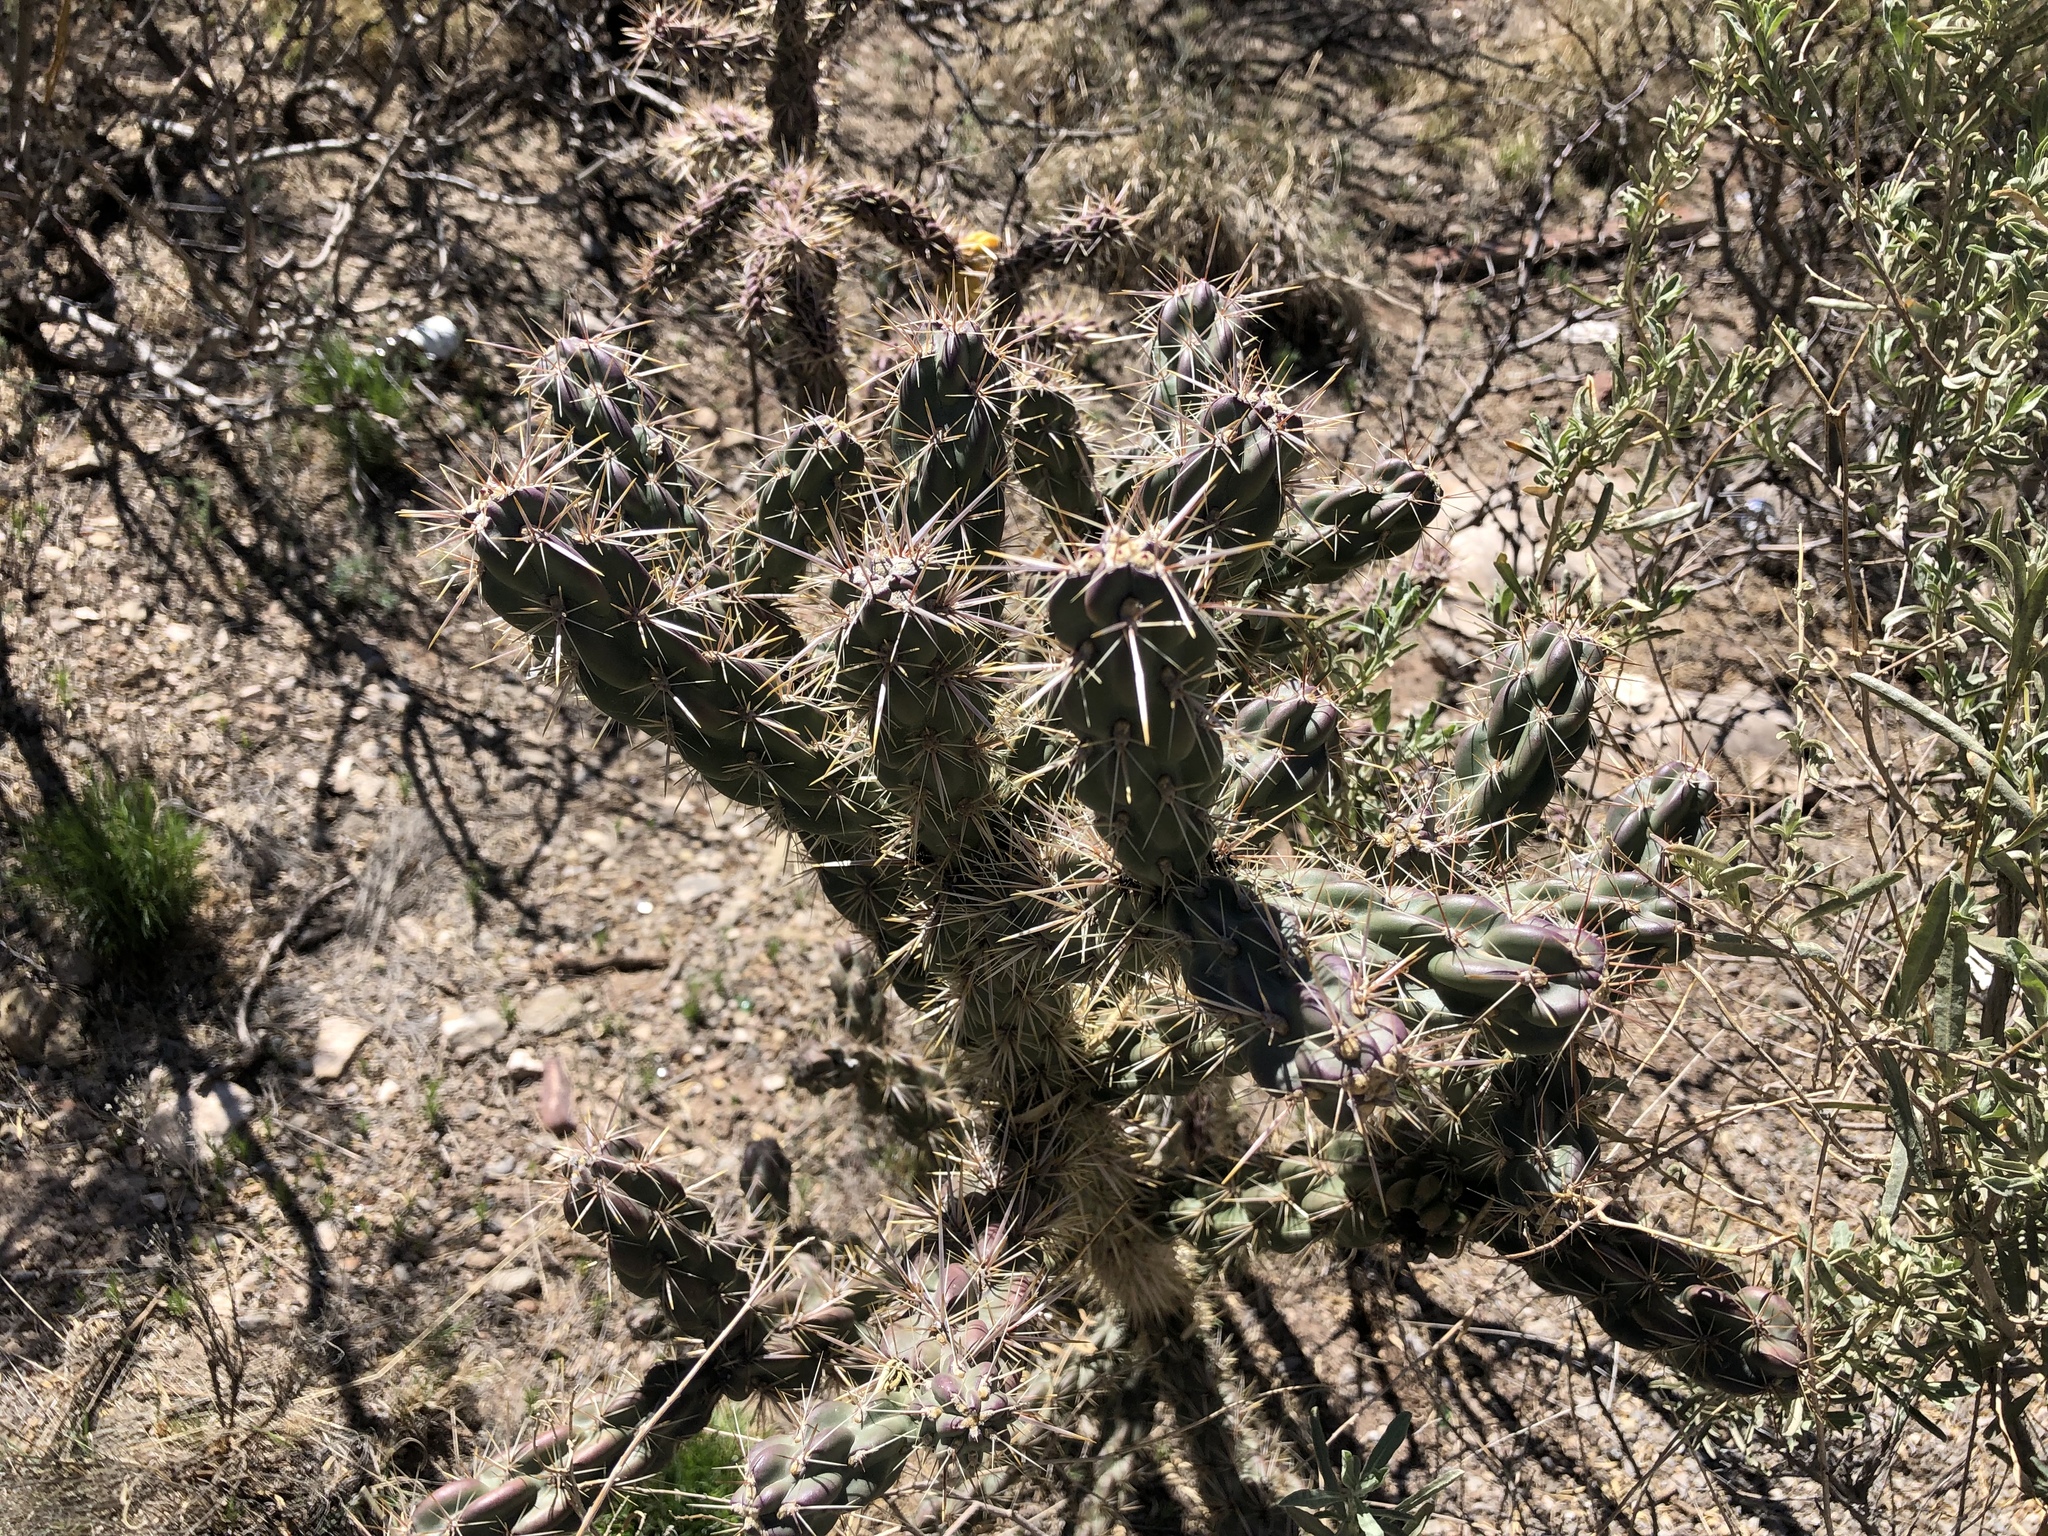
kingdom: Plantae
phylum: Tracheophyta
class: Magnoliopsida
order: Caryophyllales
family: Cactaceae
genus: Cylindropuntia
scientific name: Cylindropuntia imbricata
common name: Candelabrum cactus
